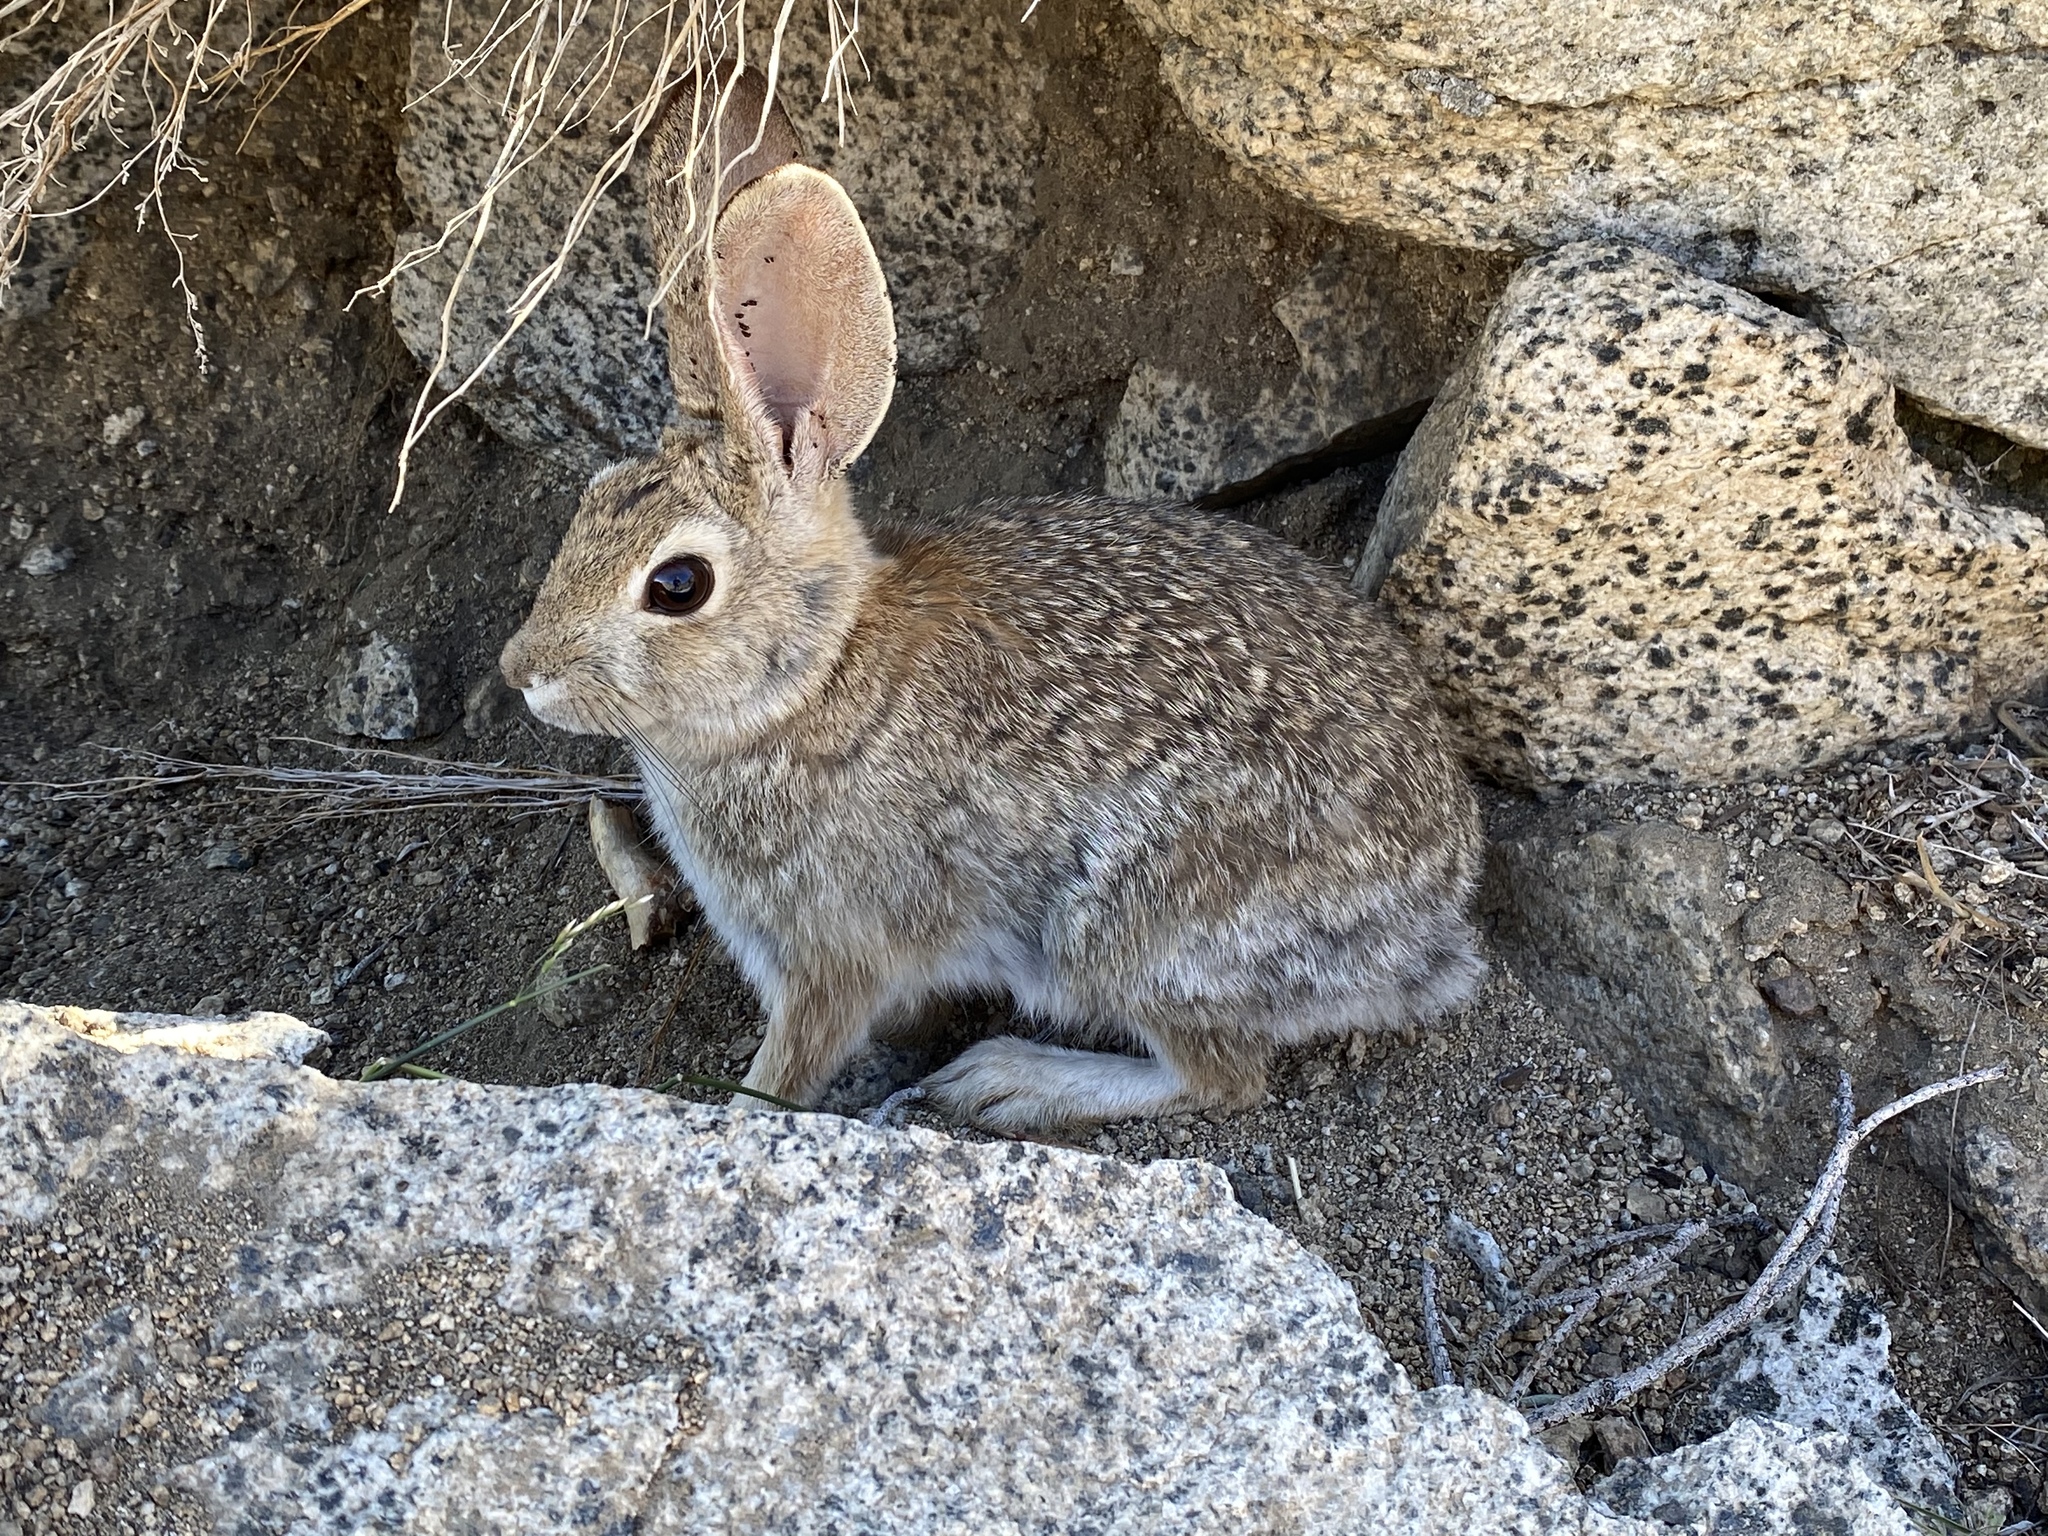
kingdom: Animalia
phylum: Chordata
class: Mammalia
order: Lagomorpha
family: Leporidae
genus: Sylvilagus
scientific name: Sylvilagus audubonii
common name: Desert cottontail
